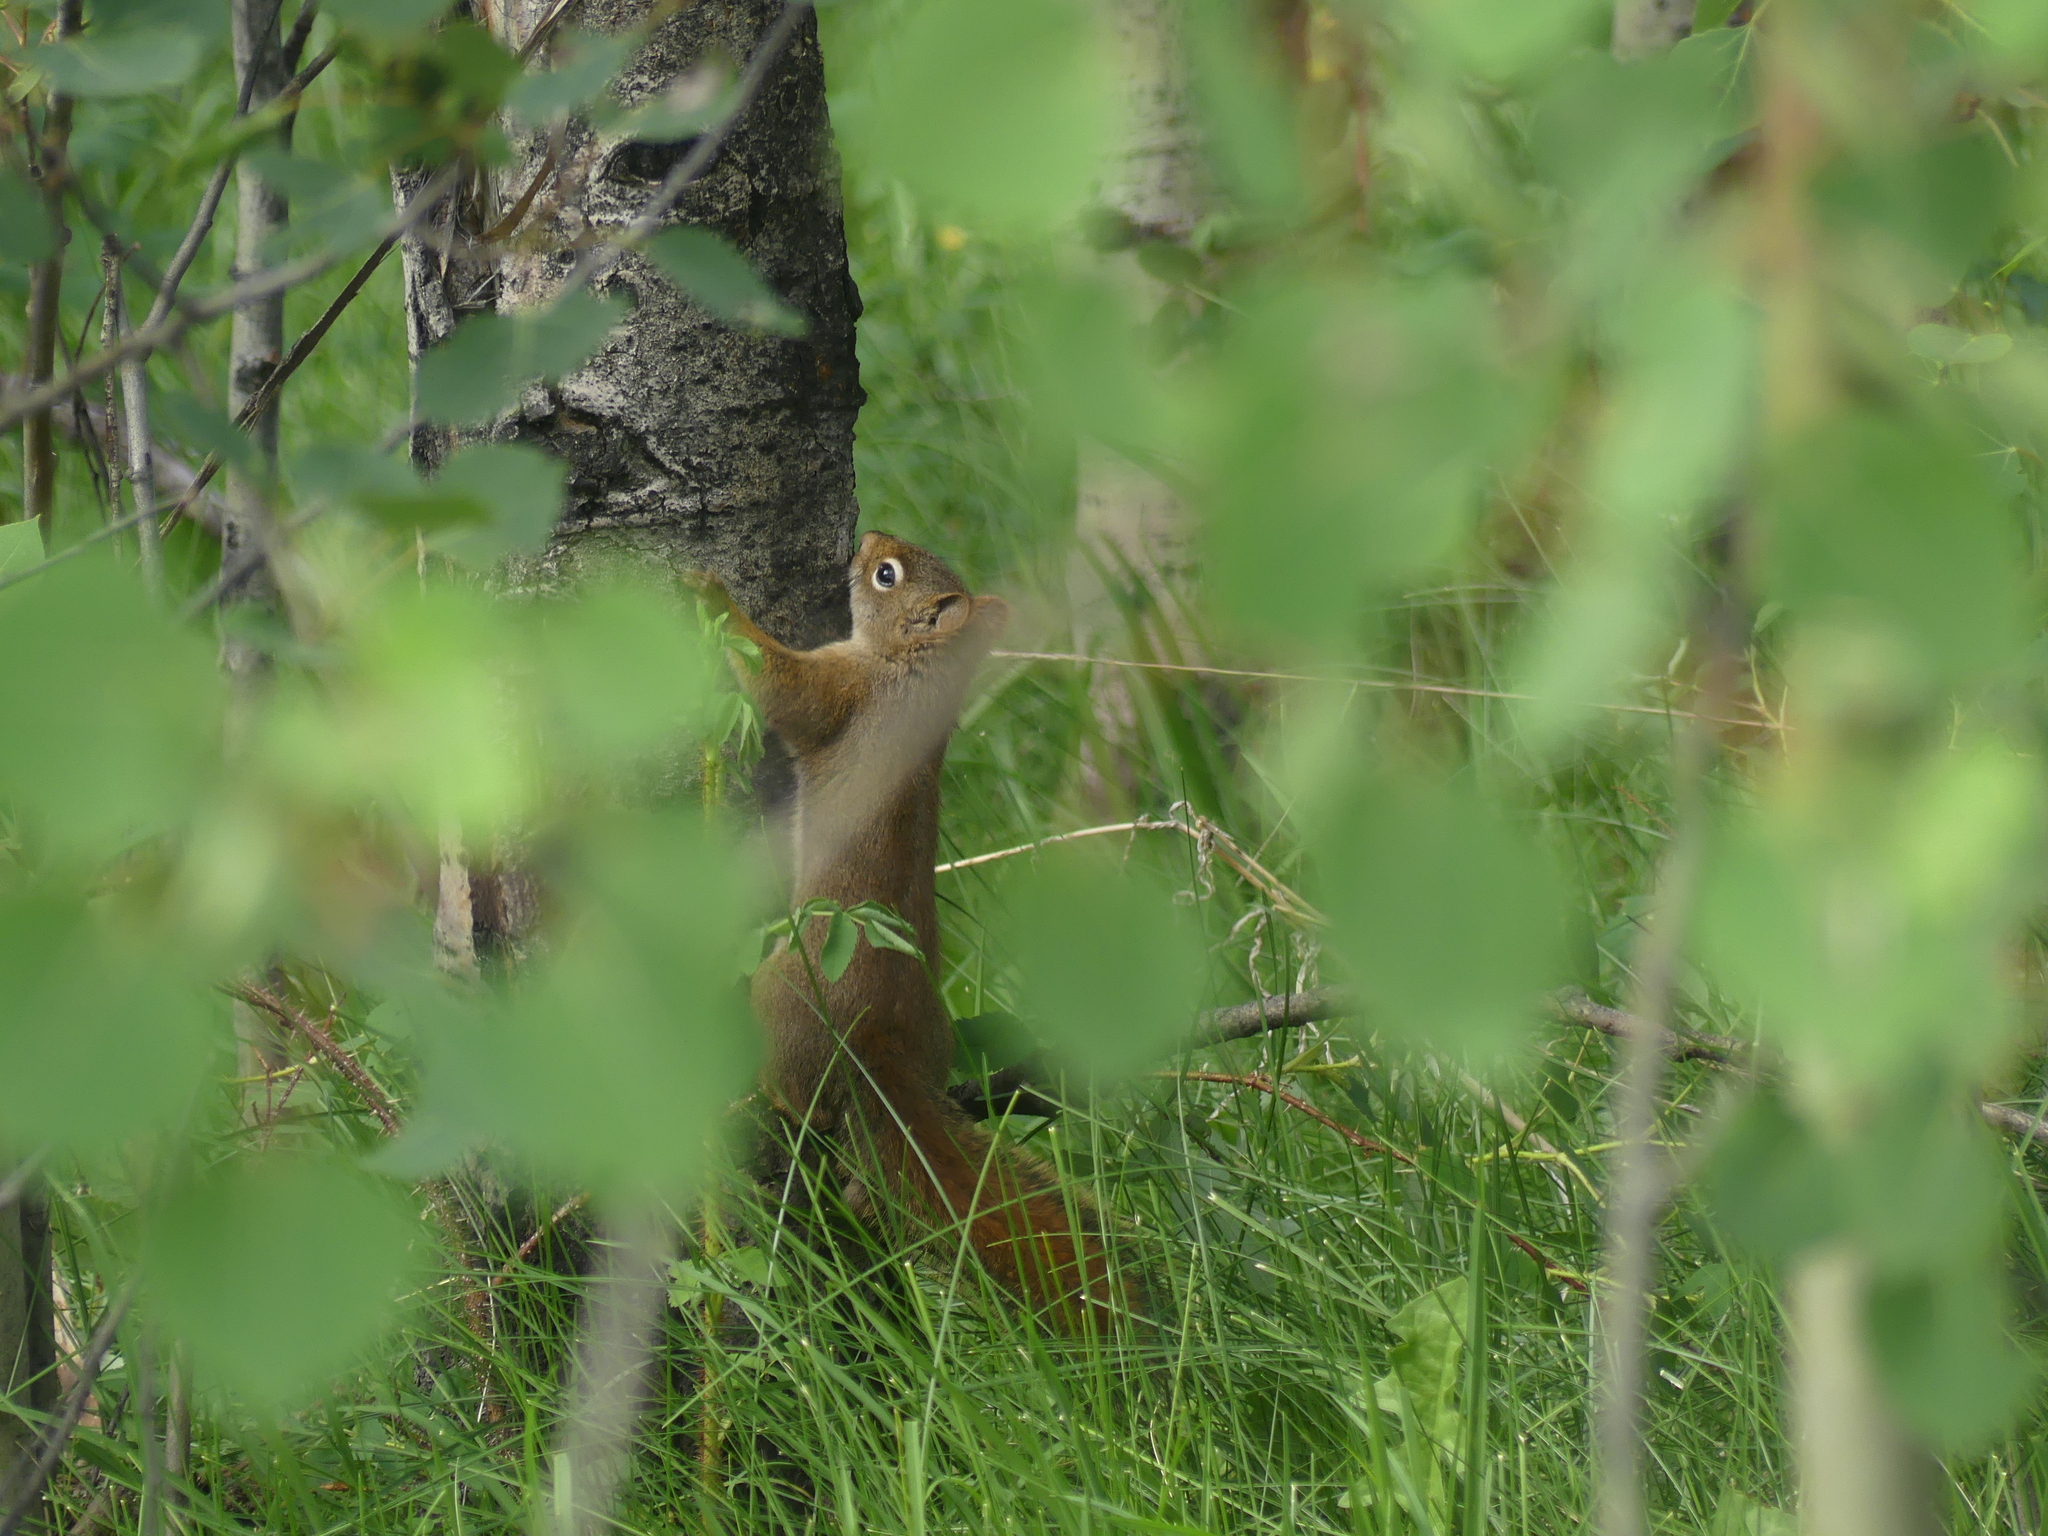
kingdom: Animalia
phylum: Chordata
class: Mammalia
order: Rodentia
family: Sciuridae
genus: Tamiasciurus
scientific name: Tamiasciurus hudsonicus
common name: Red squirrel
